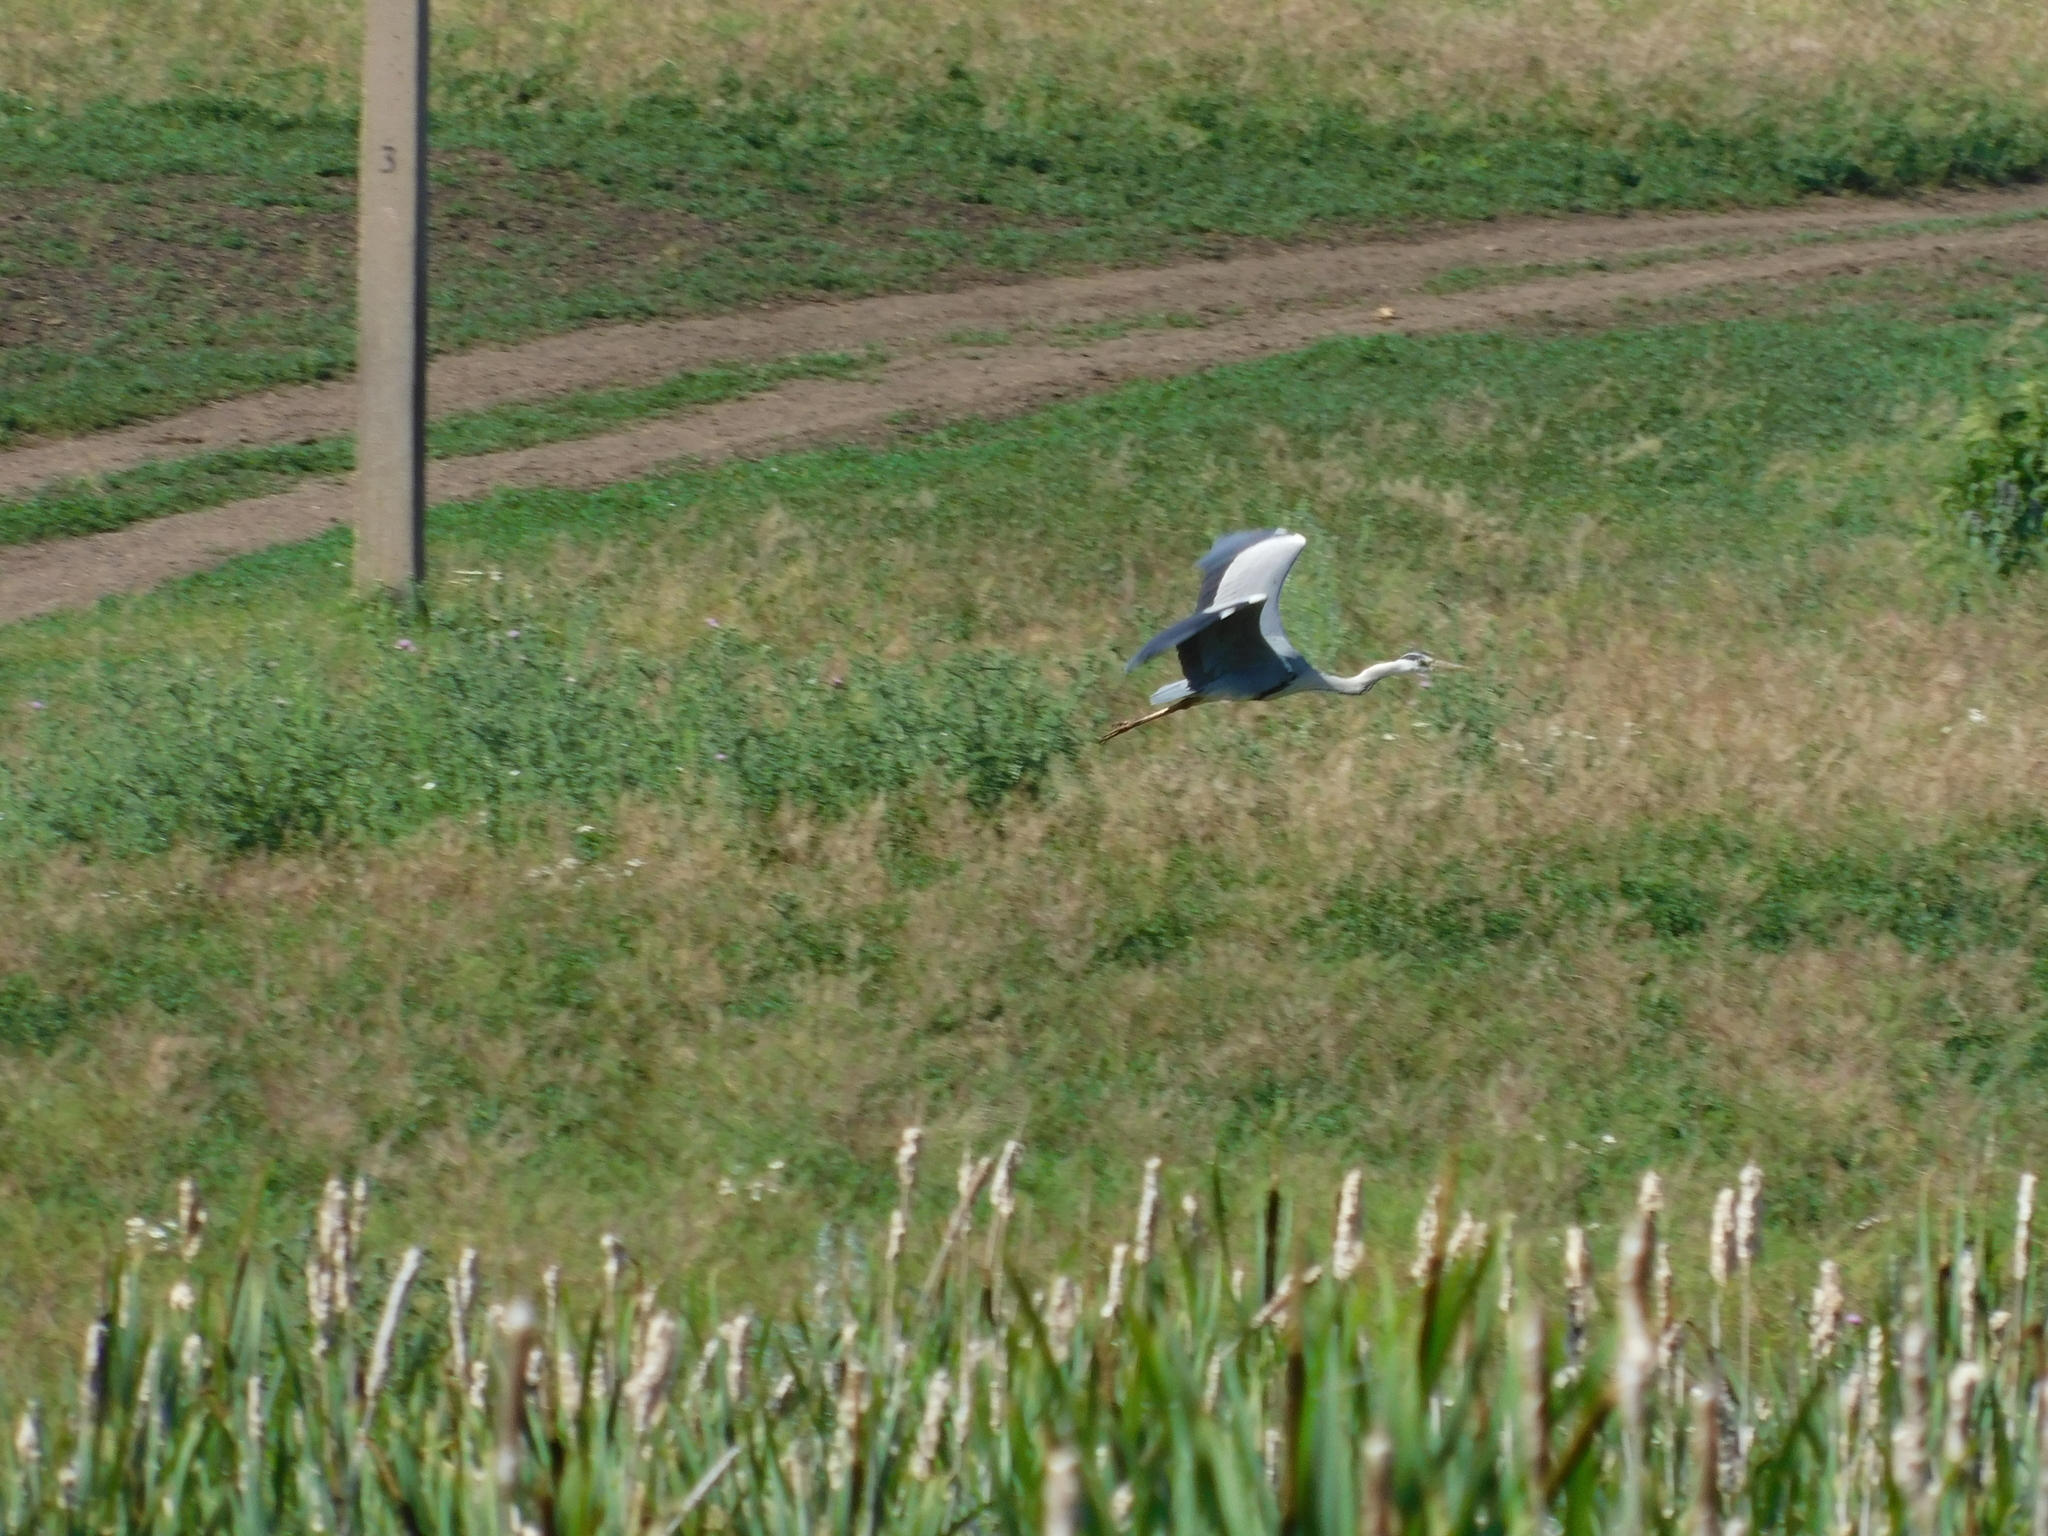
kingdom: Animalia
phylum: Chordata
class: Aves
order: Pelecaniformes
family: Ardeidae
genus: Ardea
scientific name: Ardea cinerea
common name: Grey heron
